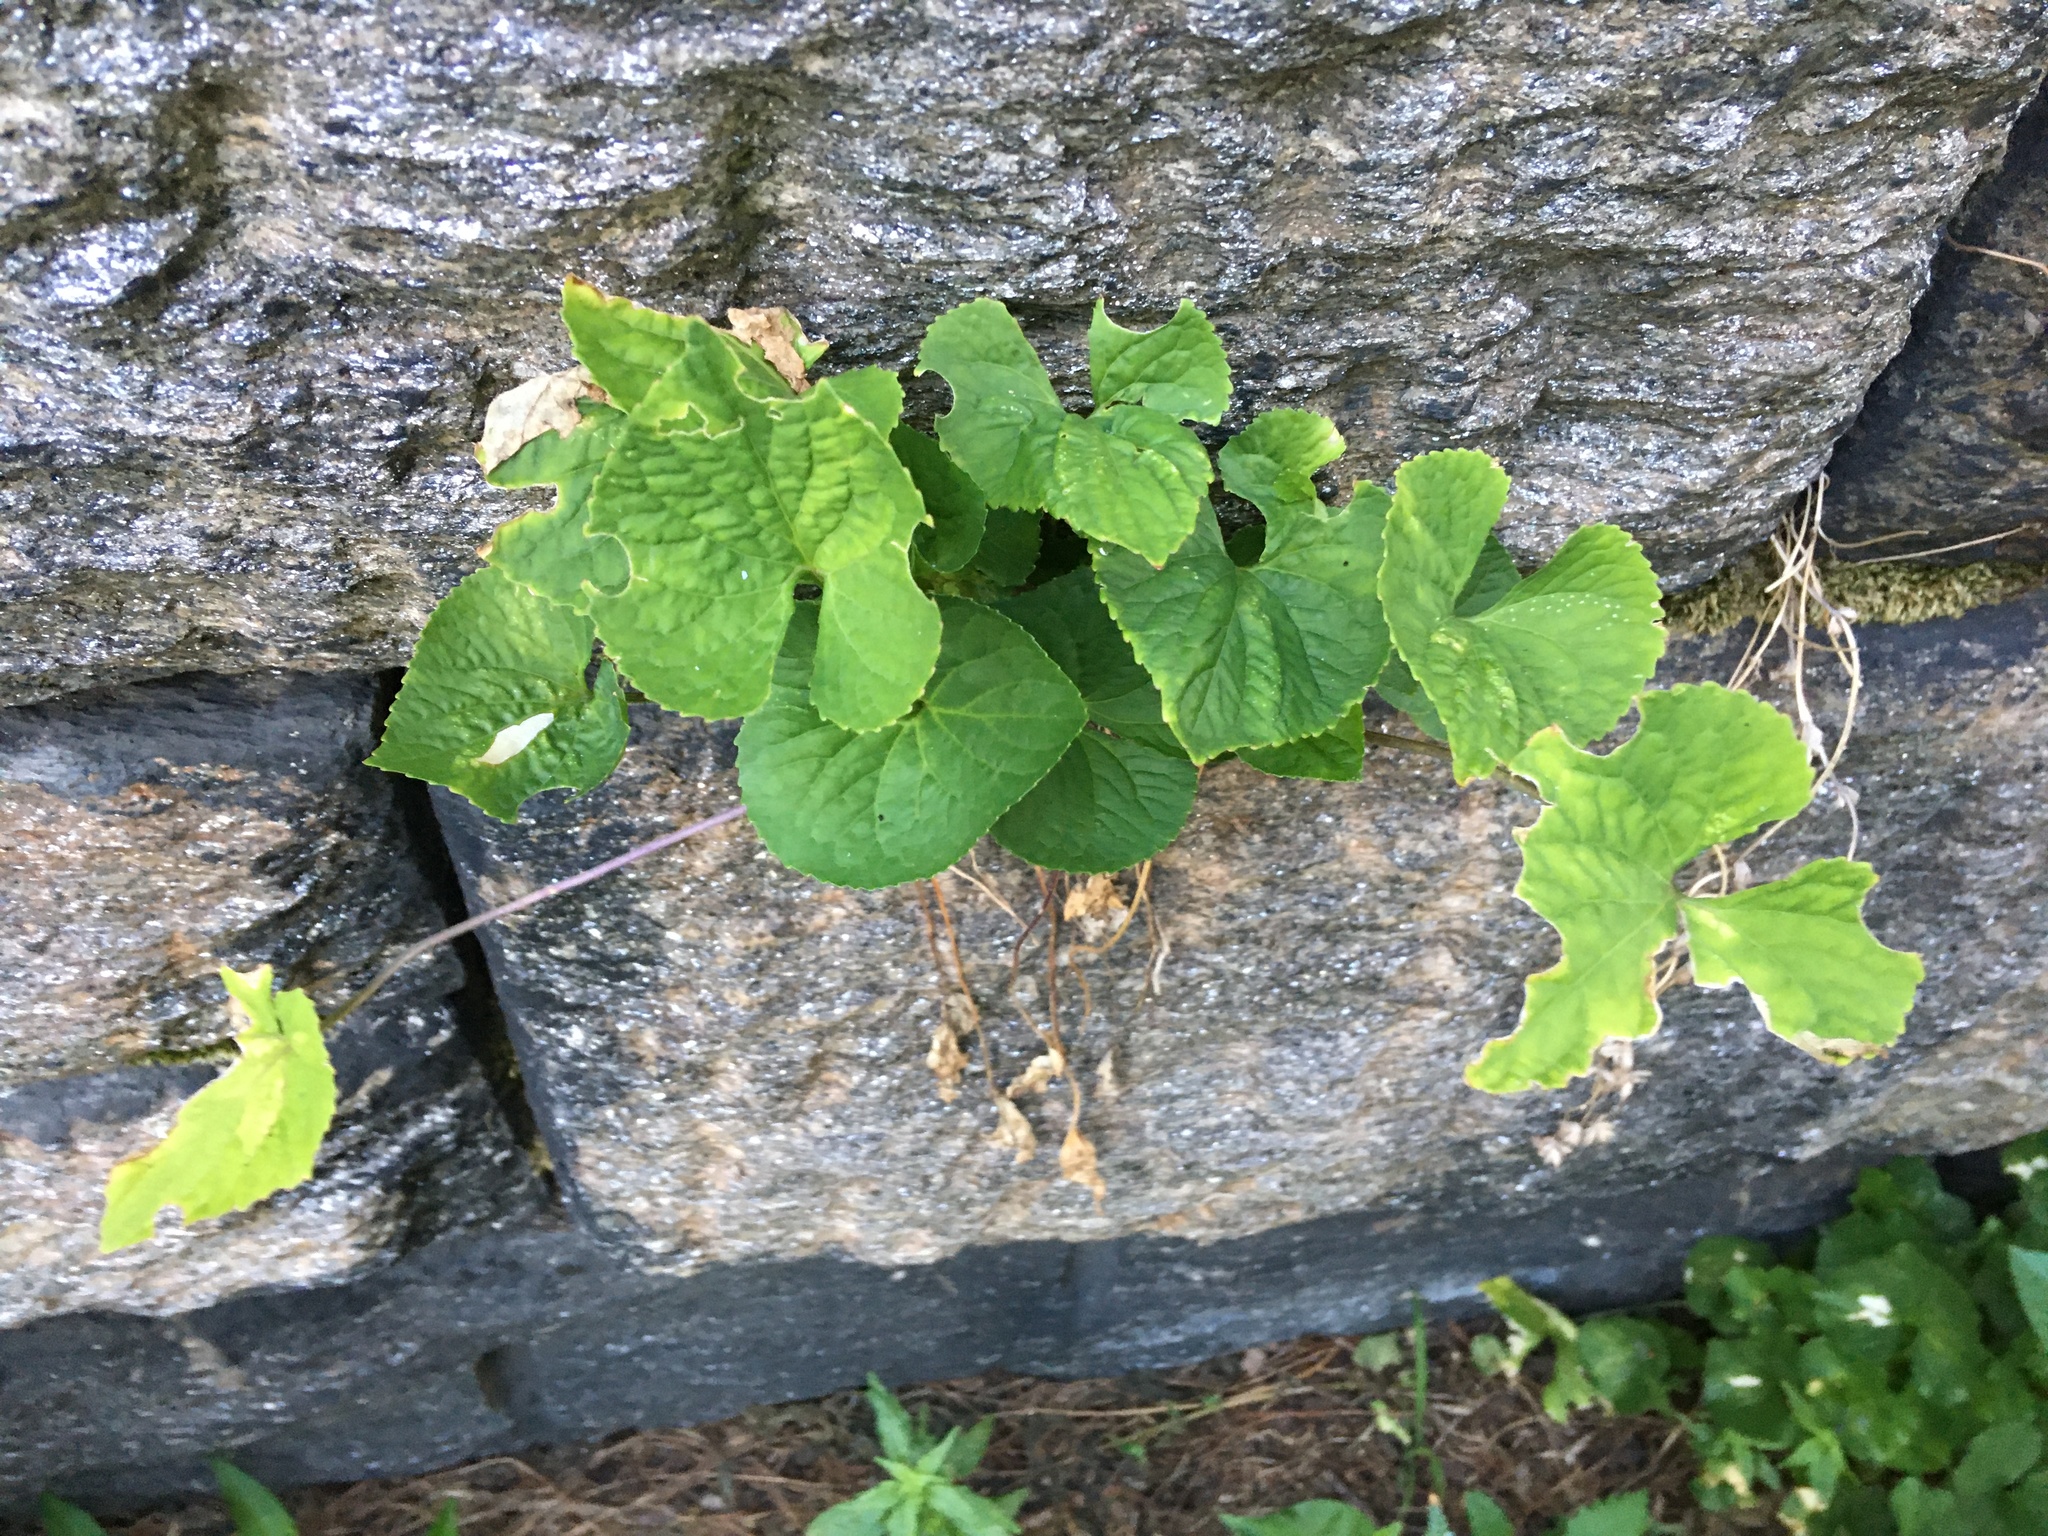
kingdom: Plantae
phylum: Tracheophyta
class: Magnoliopsida
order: Malpighiales
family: Violaceae
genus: Viola
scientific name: Viola sororia
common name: Dooryard violet
